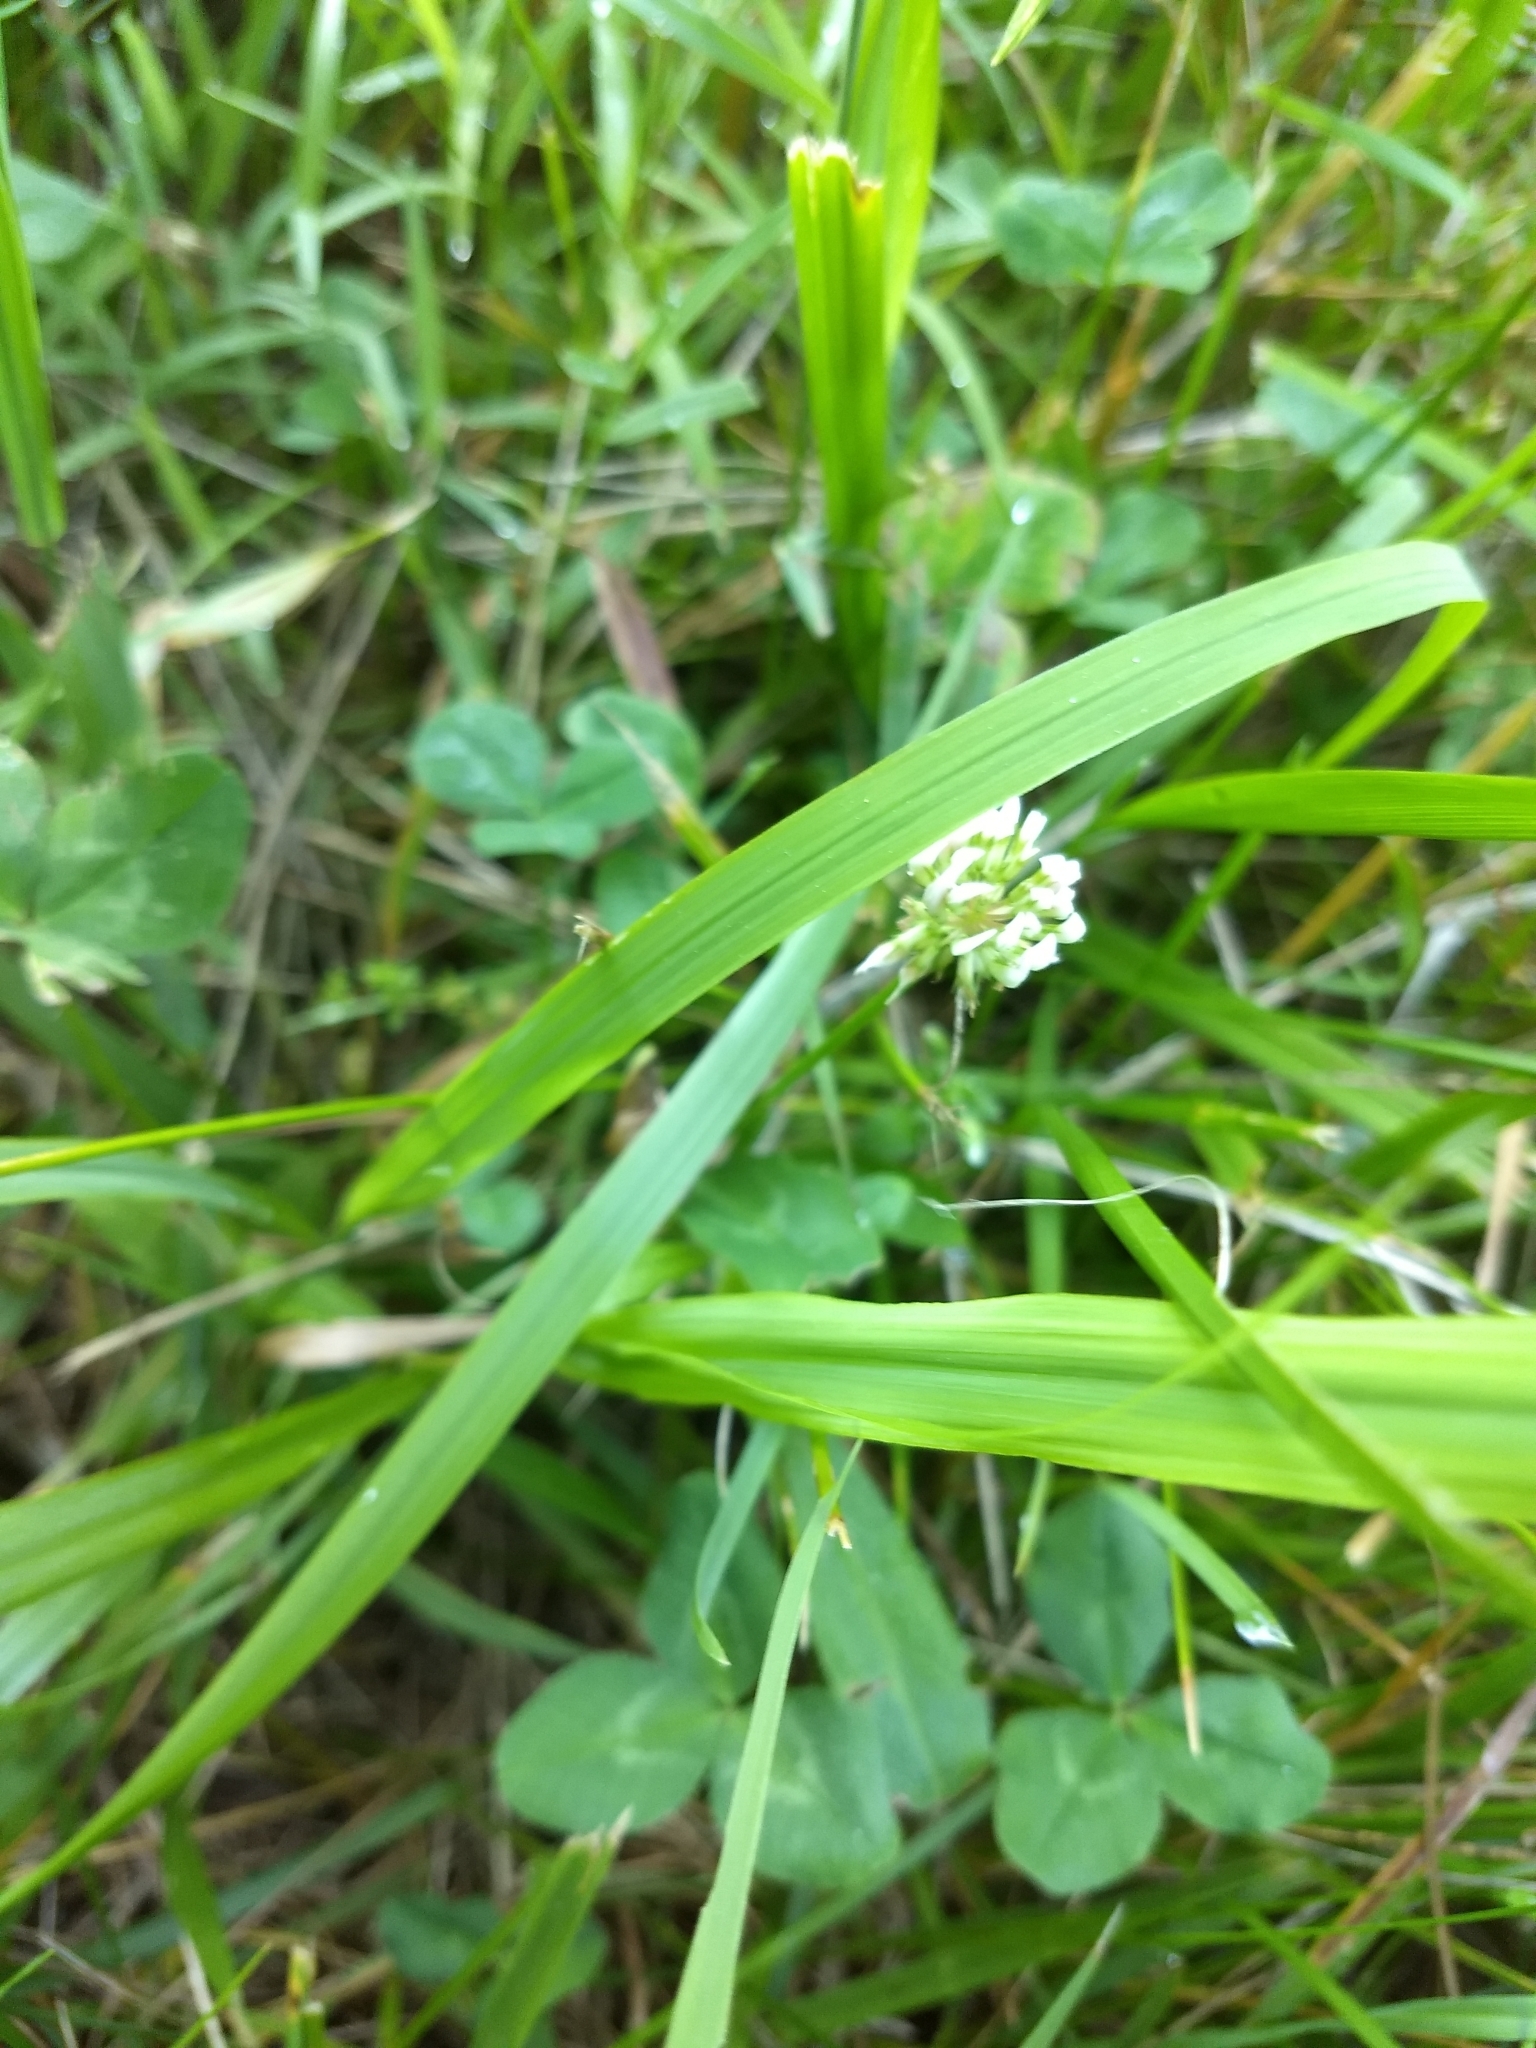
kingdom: Plantae
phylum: Tracheophyta
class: Magnoliopsida
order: Fabales
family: Fabaceae
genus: Trifolium
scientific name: Trifolium repens
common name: White clover
